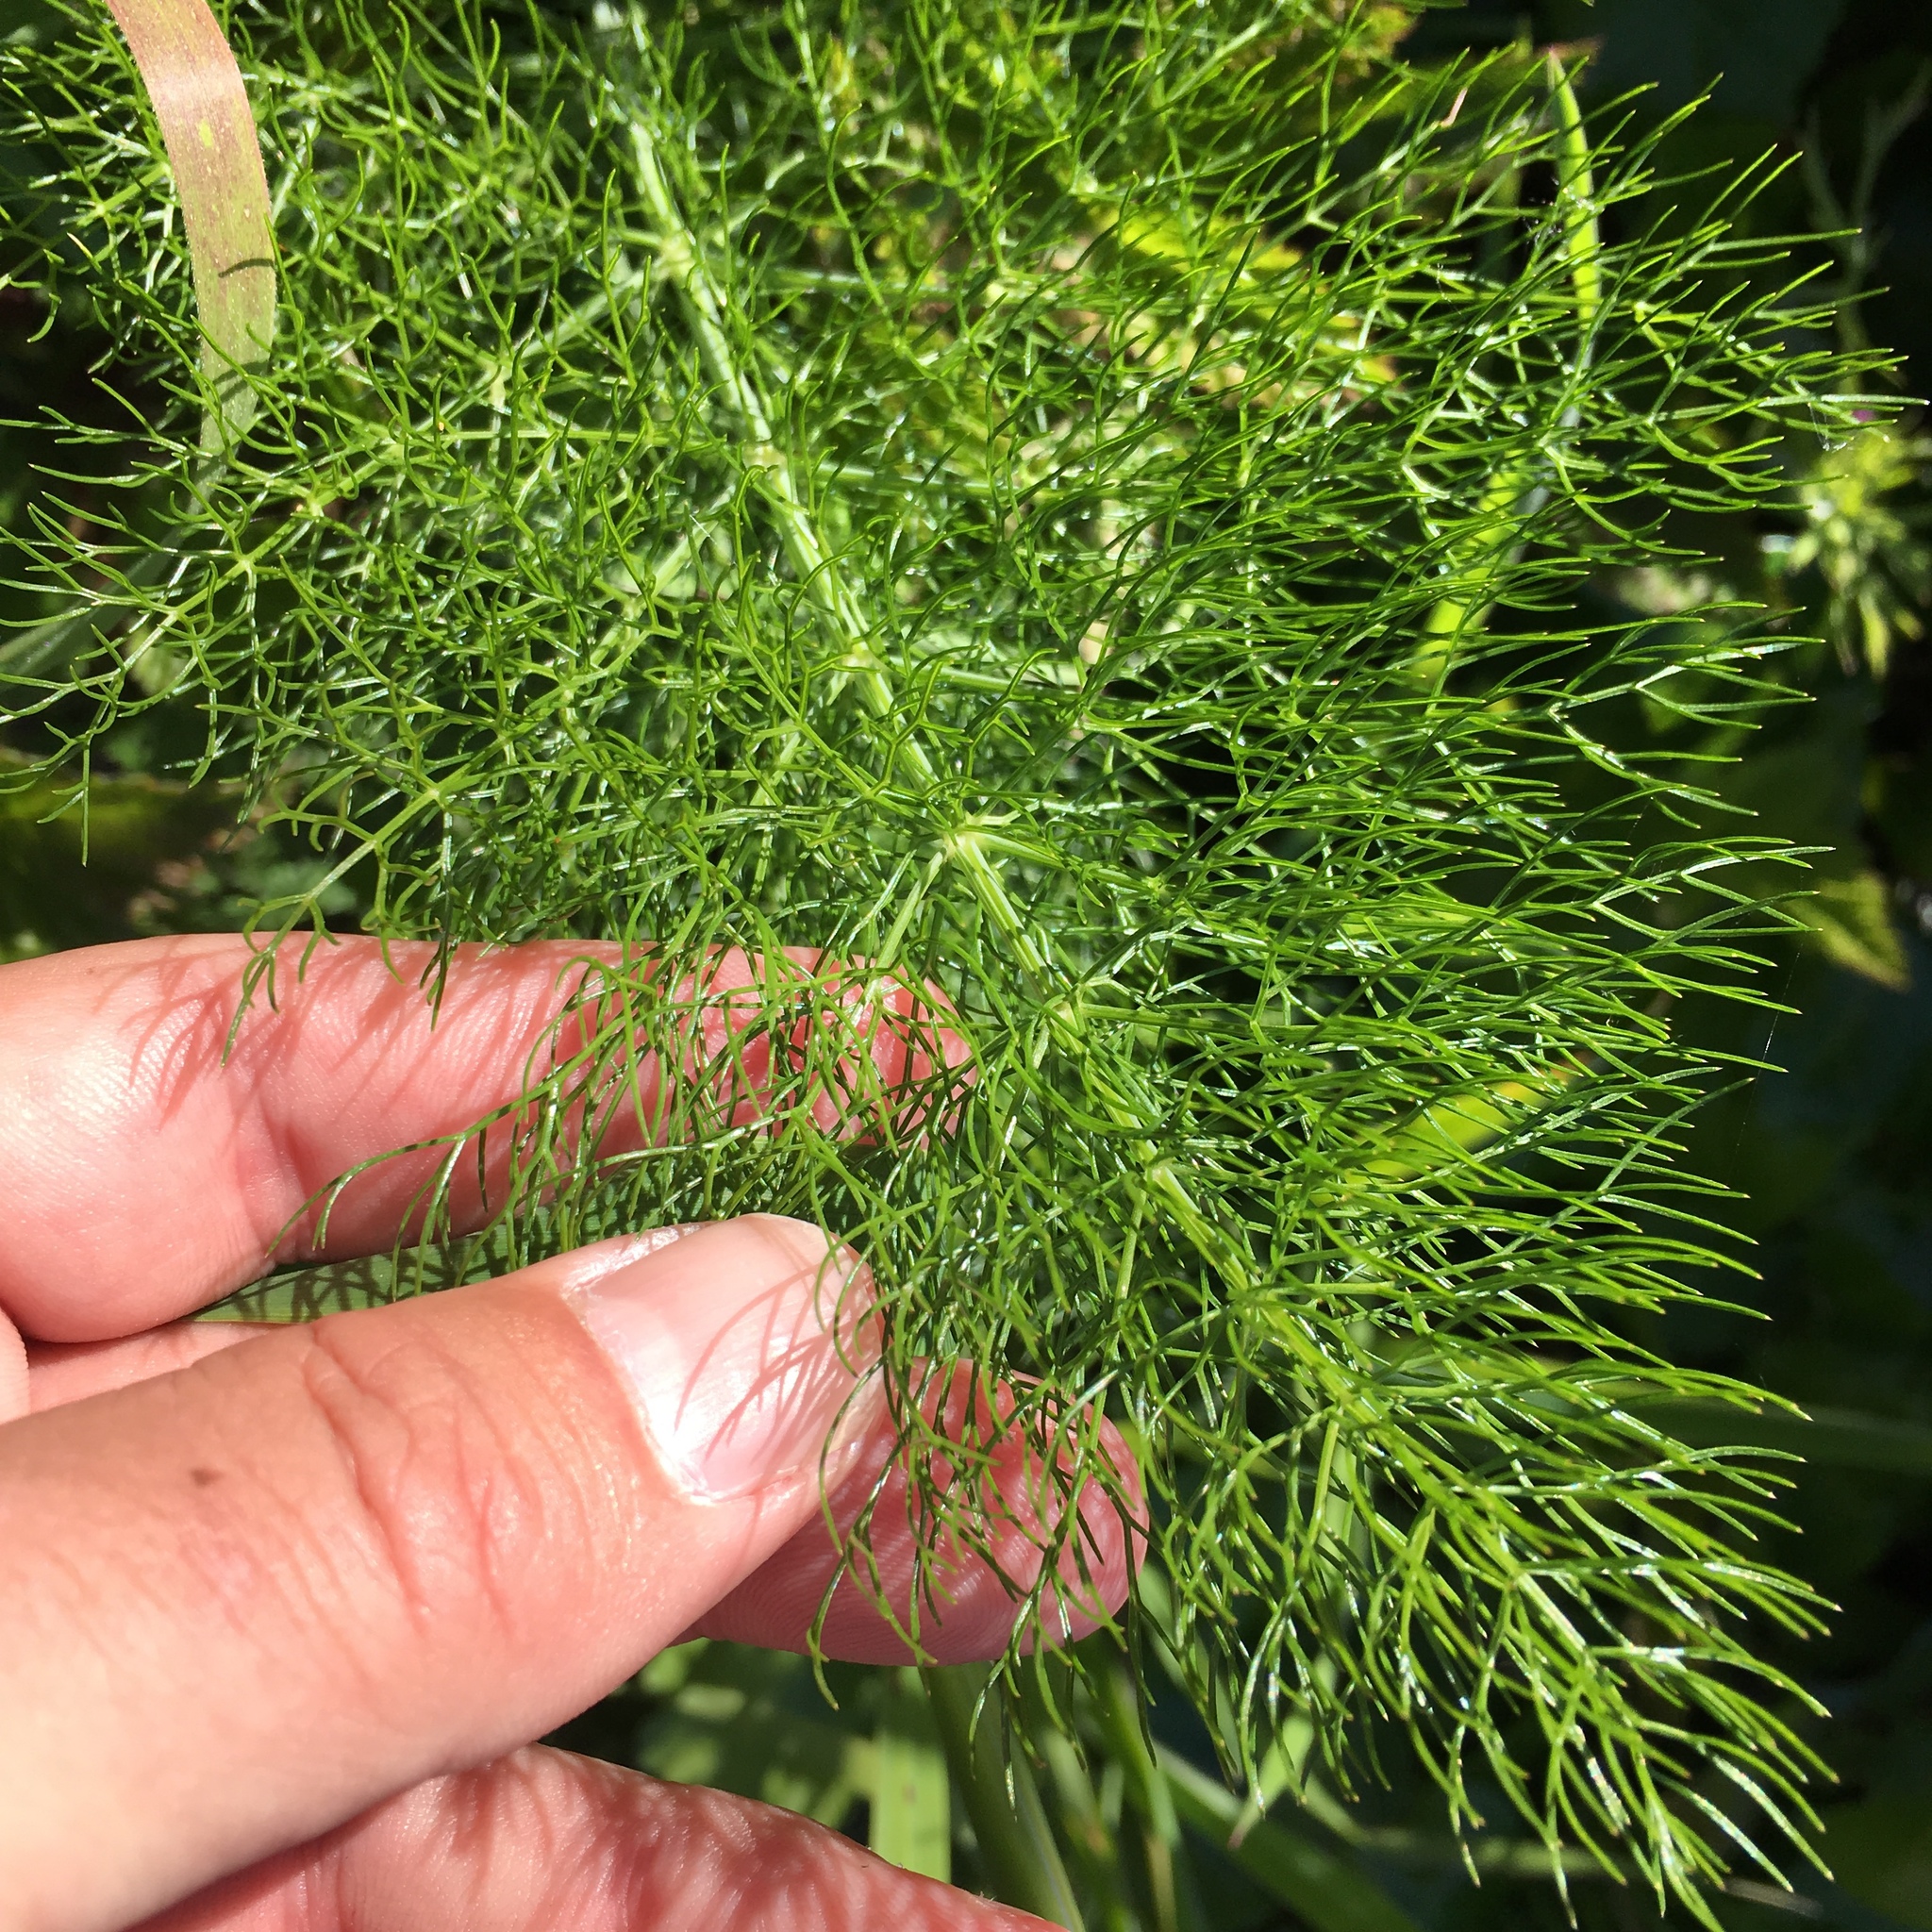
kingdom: Plantae
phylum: Tracheophyta
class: Magnoliopsida
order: Apiales
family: Apiaceae
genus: Foeniculum
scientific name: Foeniculum vulgare
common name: Fennel
